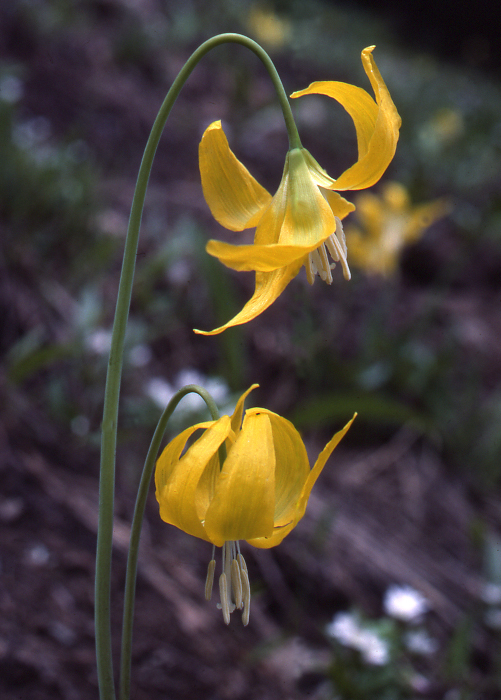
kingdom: Plantae
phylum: Tracheophyta
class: Liliopsida
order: Liliales
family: Liliaceae
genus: Erythronium
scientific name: Erythronium grandiflorum
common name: Avalanche-lily
